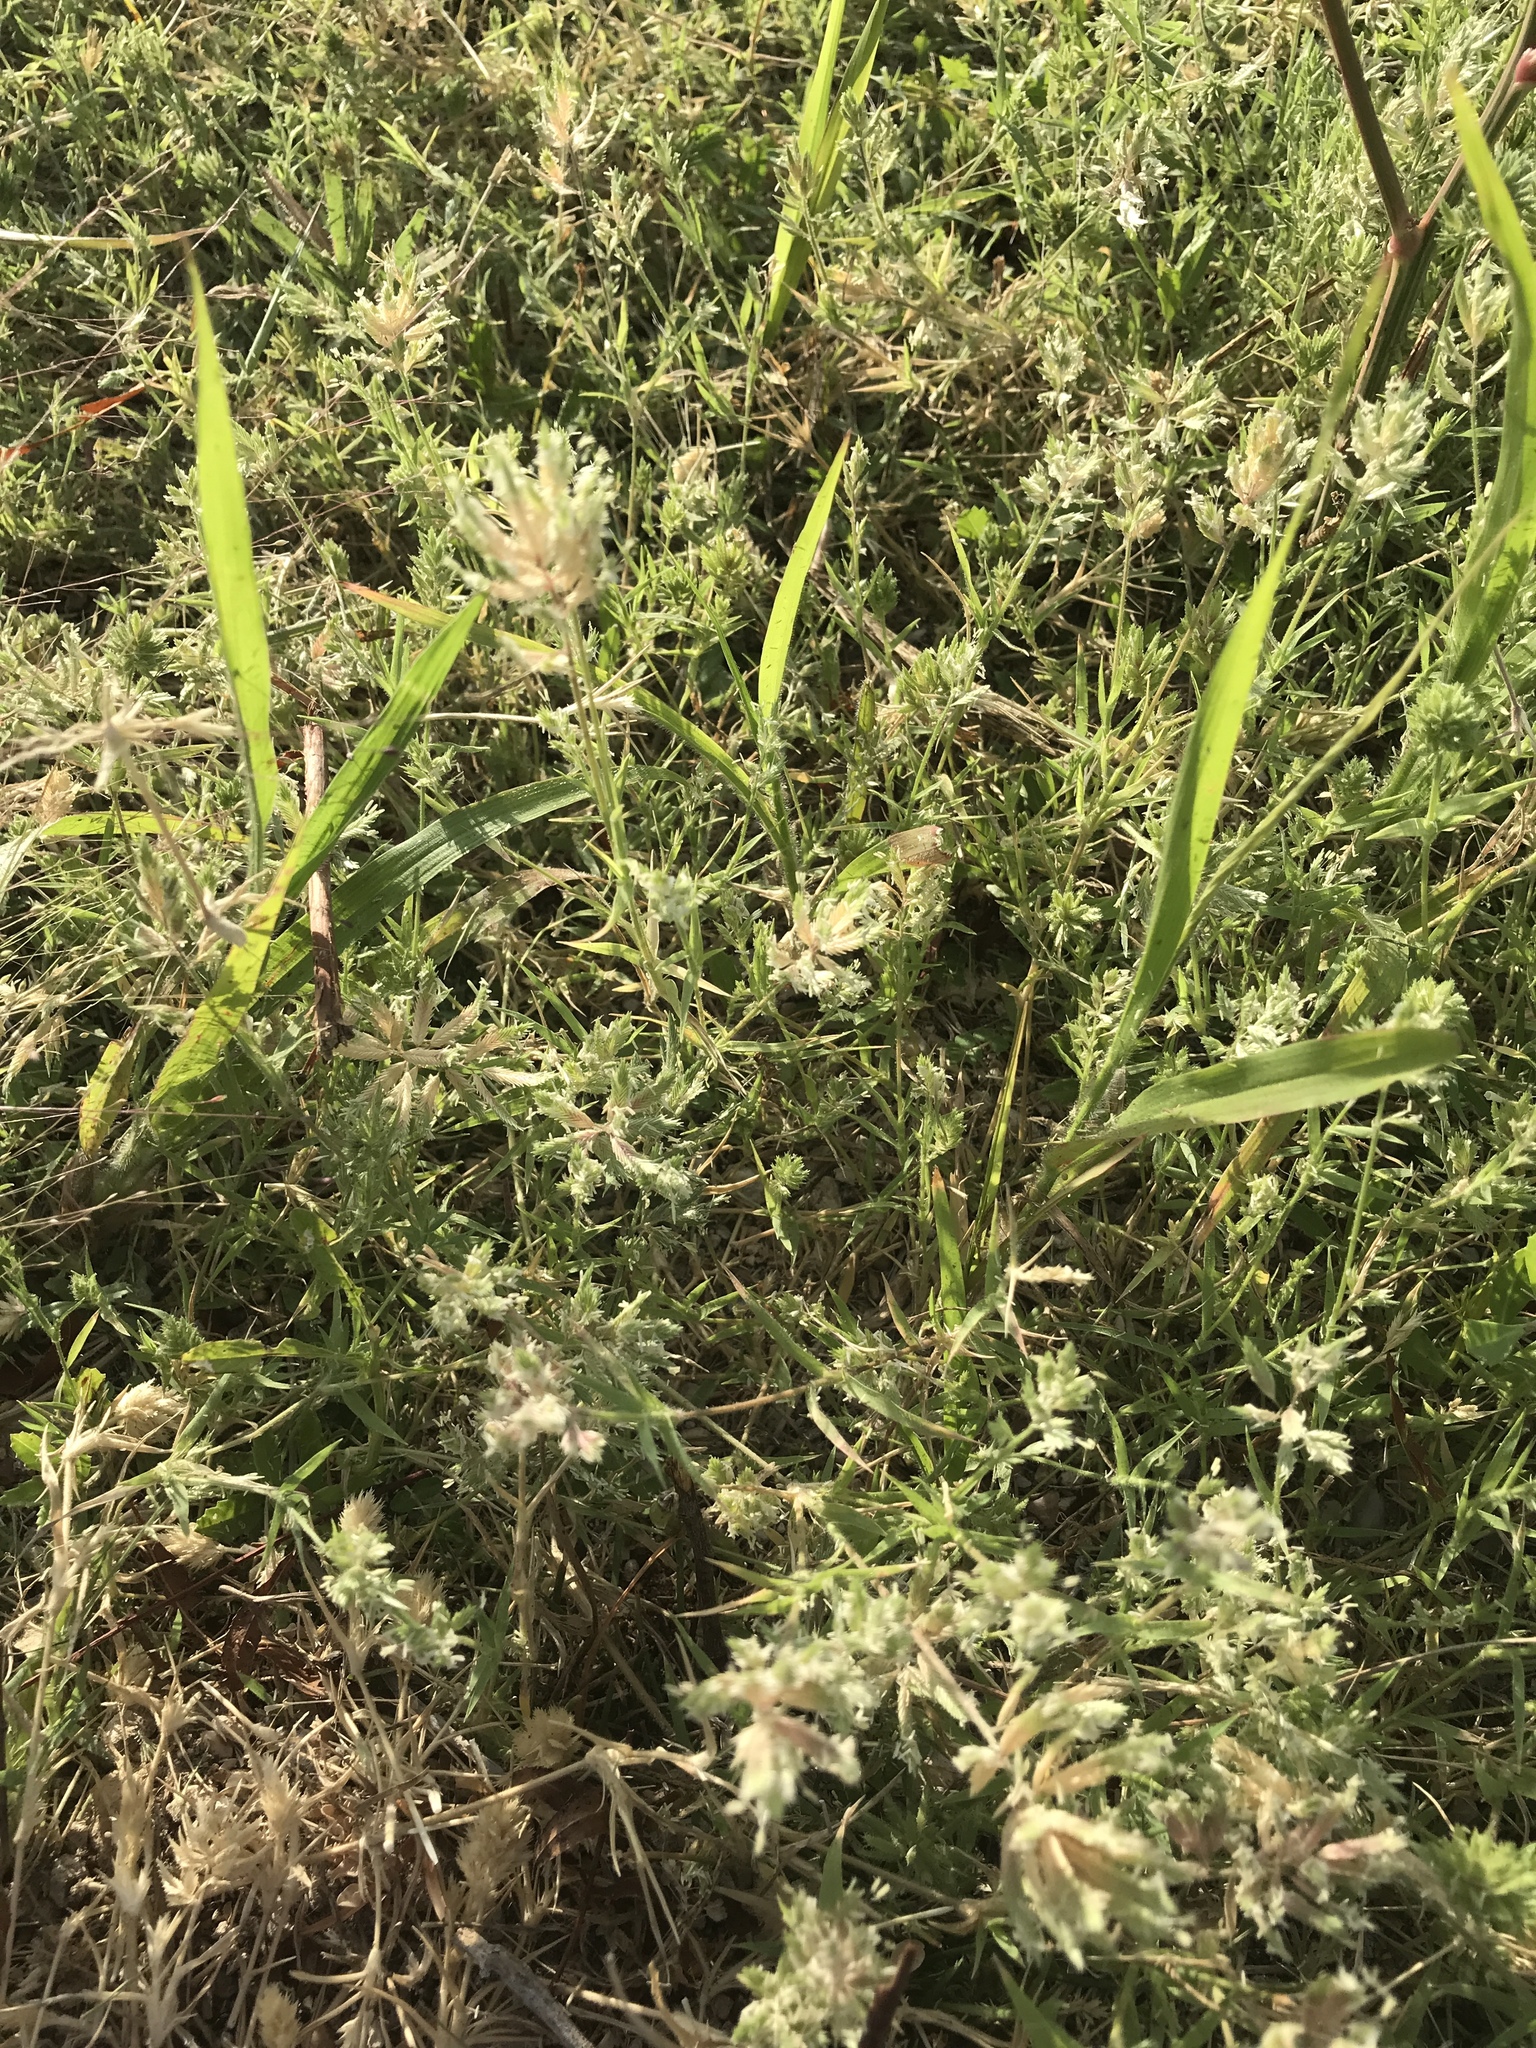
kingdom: Plantae
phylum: Tracheophyta
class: Liliopsida
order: Poales
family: Poaceae
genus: Eragrostis
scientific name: Eragrostis reptans
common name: Creeping love grass
